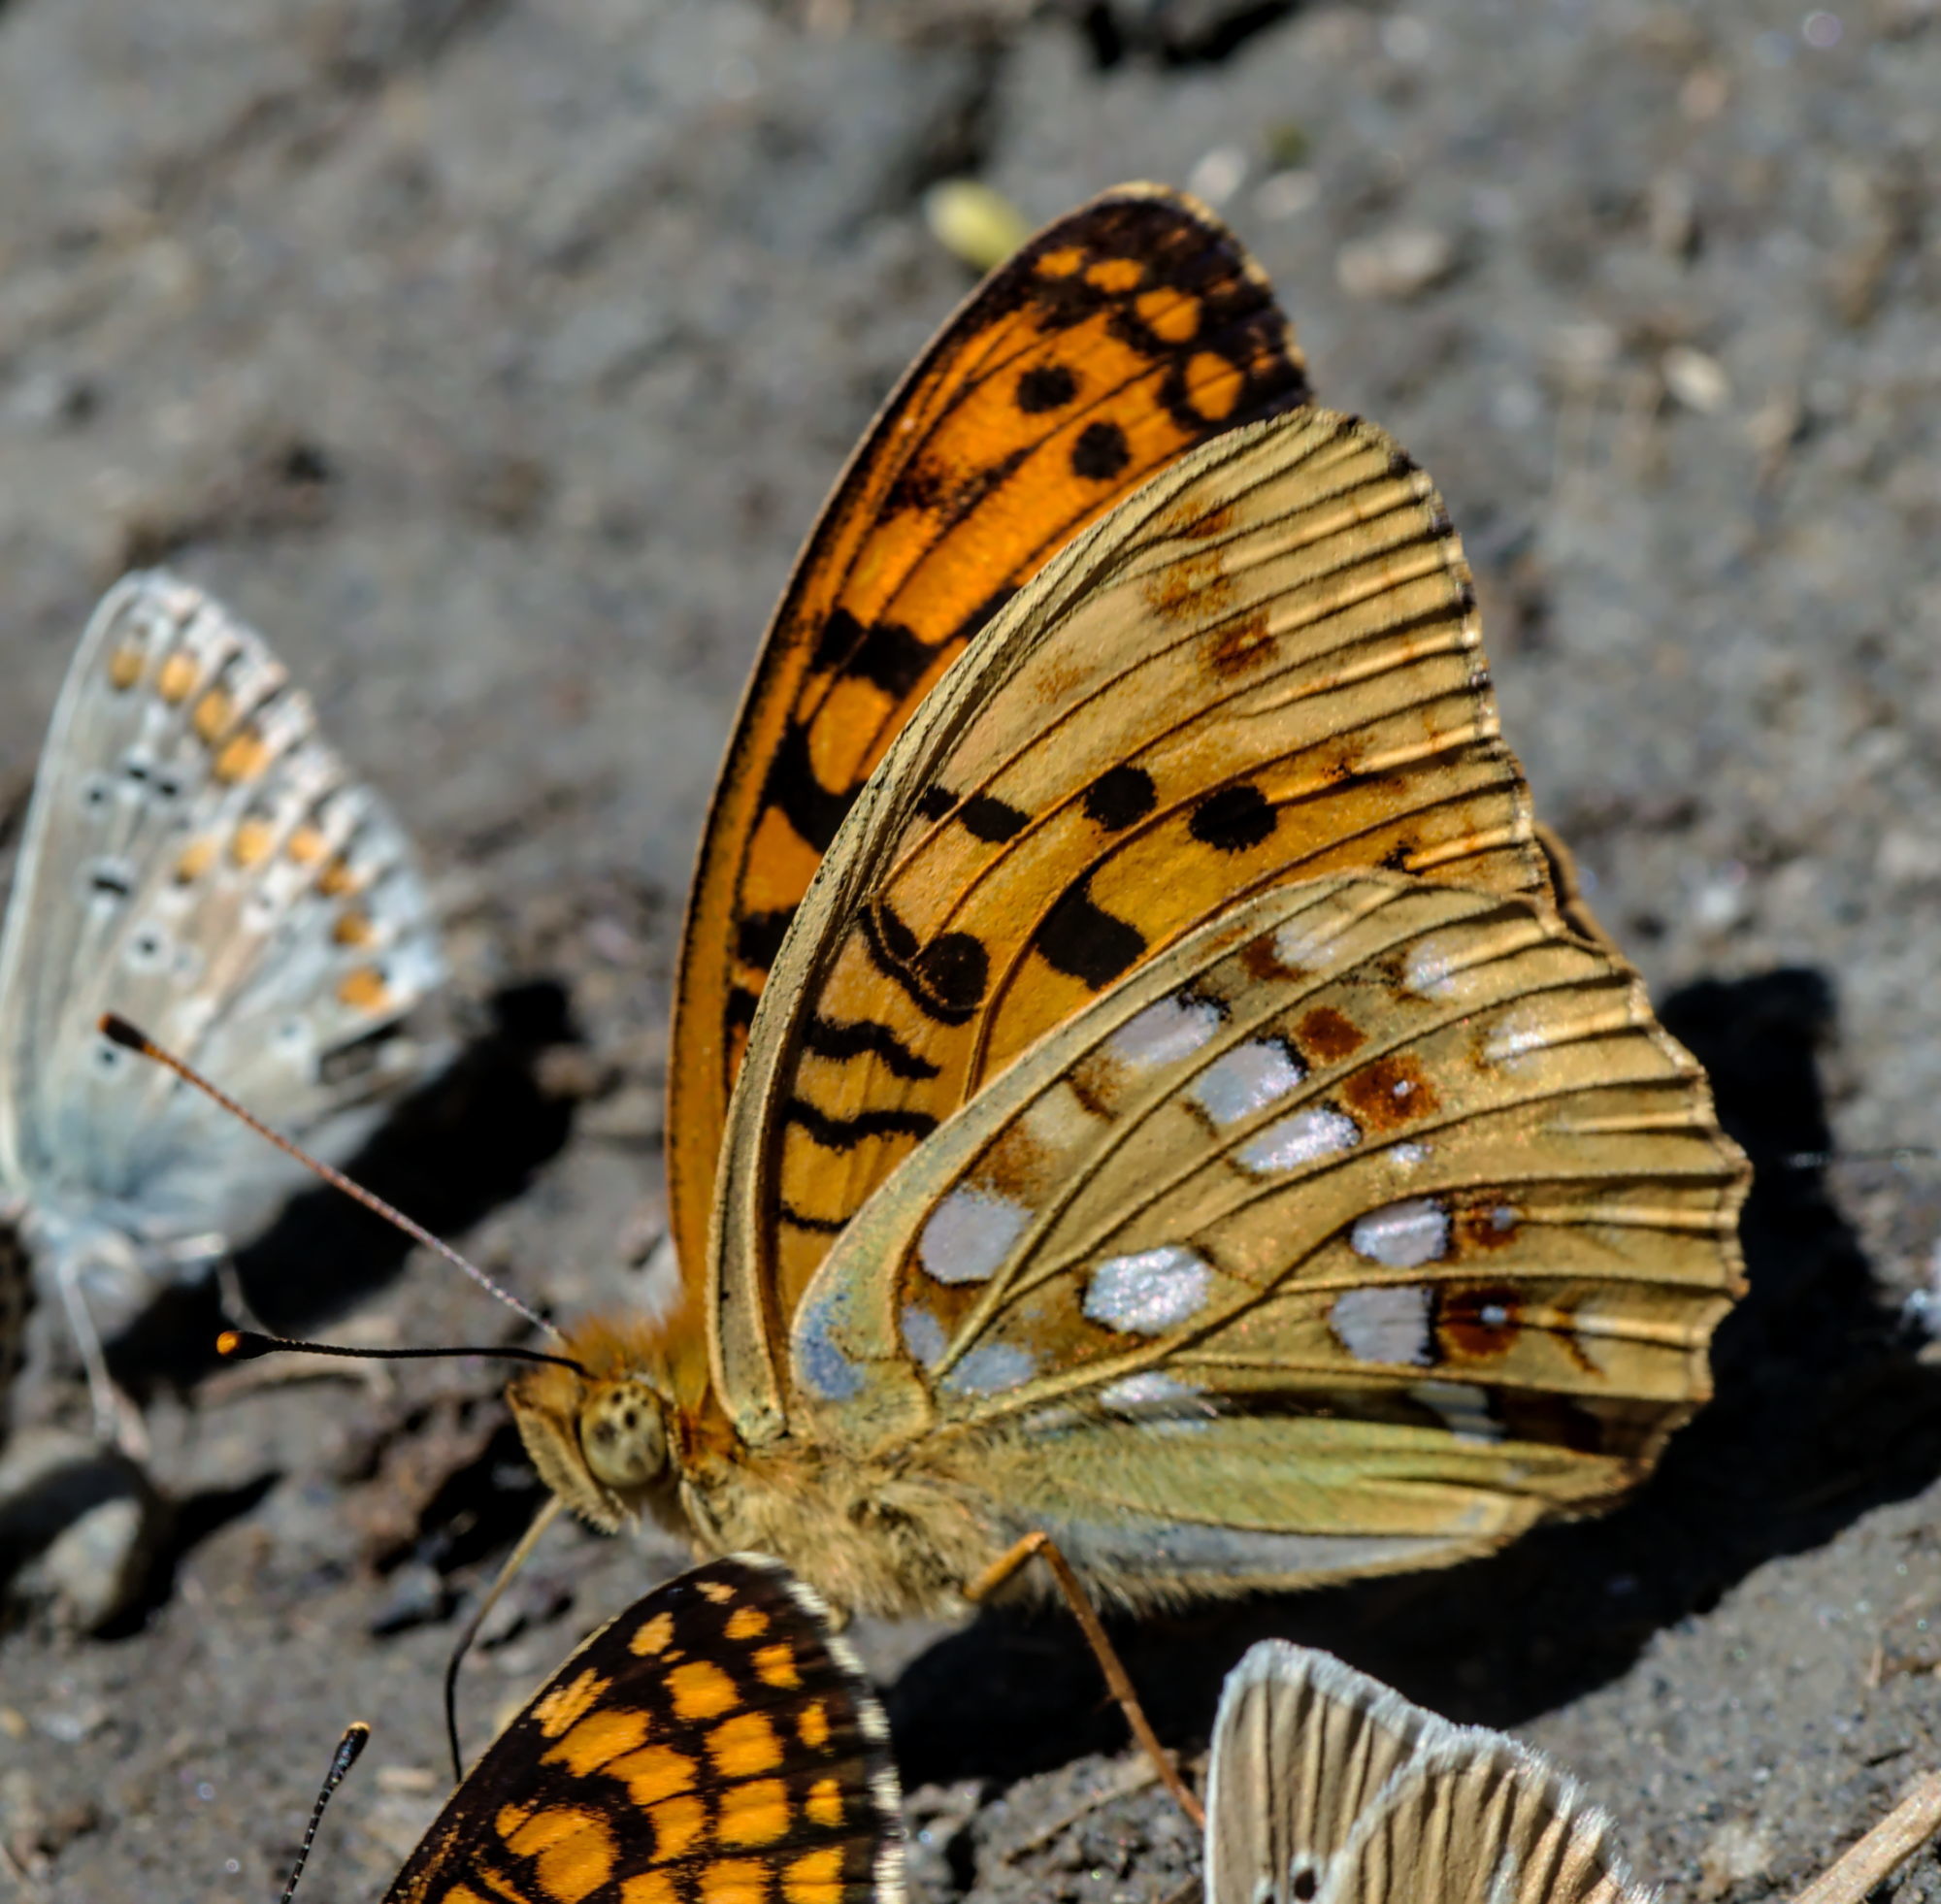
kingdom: Animalia
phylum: Arthropoda
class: Insecta
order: Lepidoptera
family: Nymphalidae
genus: Fabriciana
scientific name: Fabriciana adippe
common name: High brown fritillary
